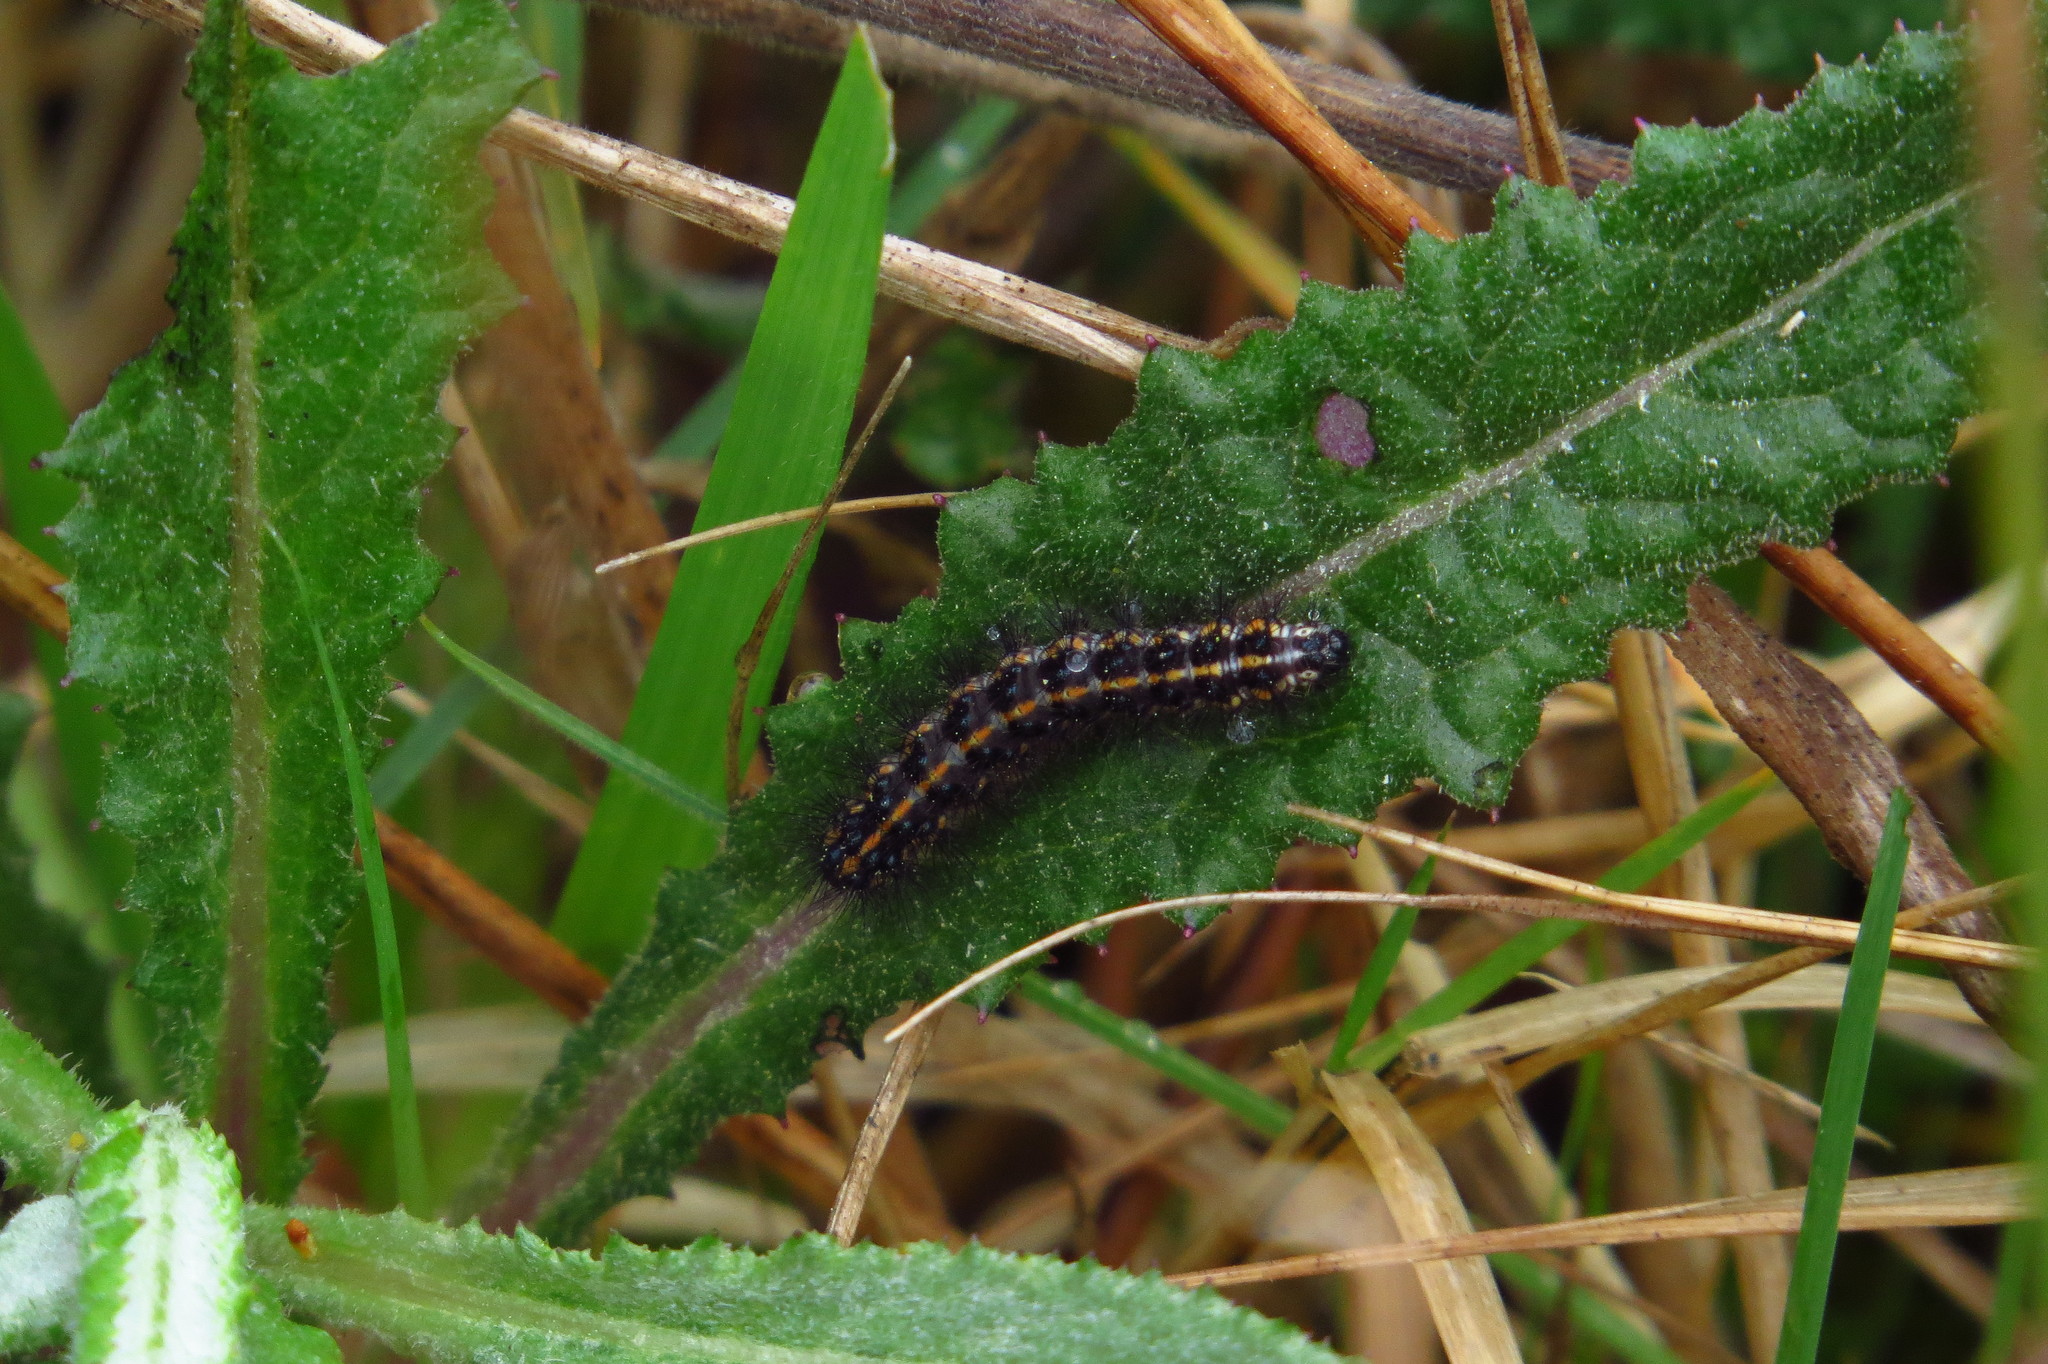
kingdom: Animalia
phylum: Arthropoda
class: Insecta
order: Lepidoptera
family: Erebidae
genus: Nyctemera
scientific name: Nyctemera annulatum
